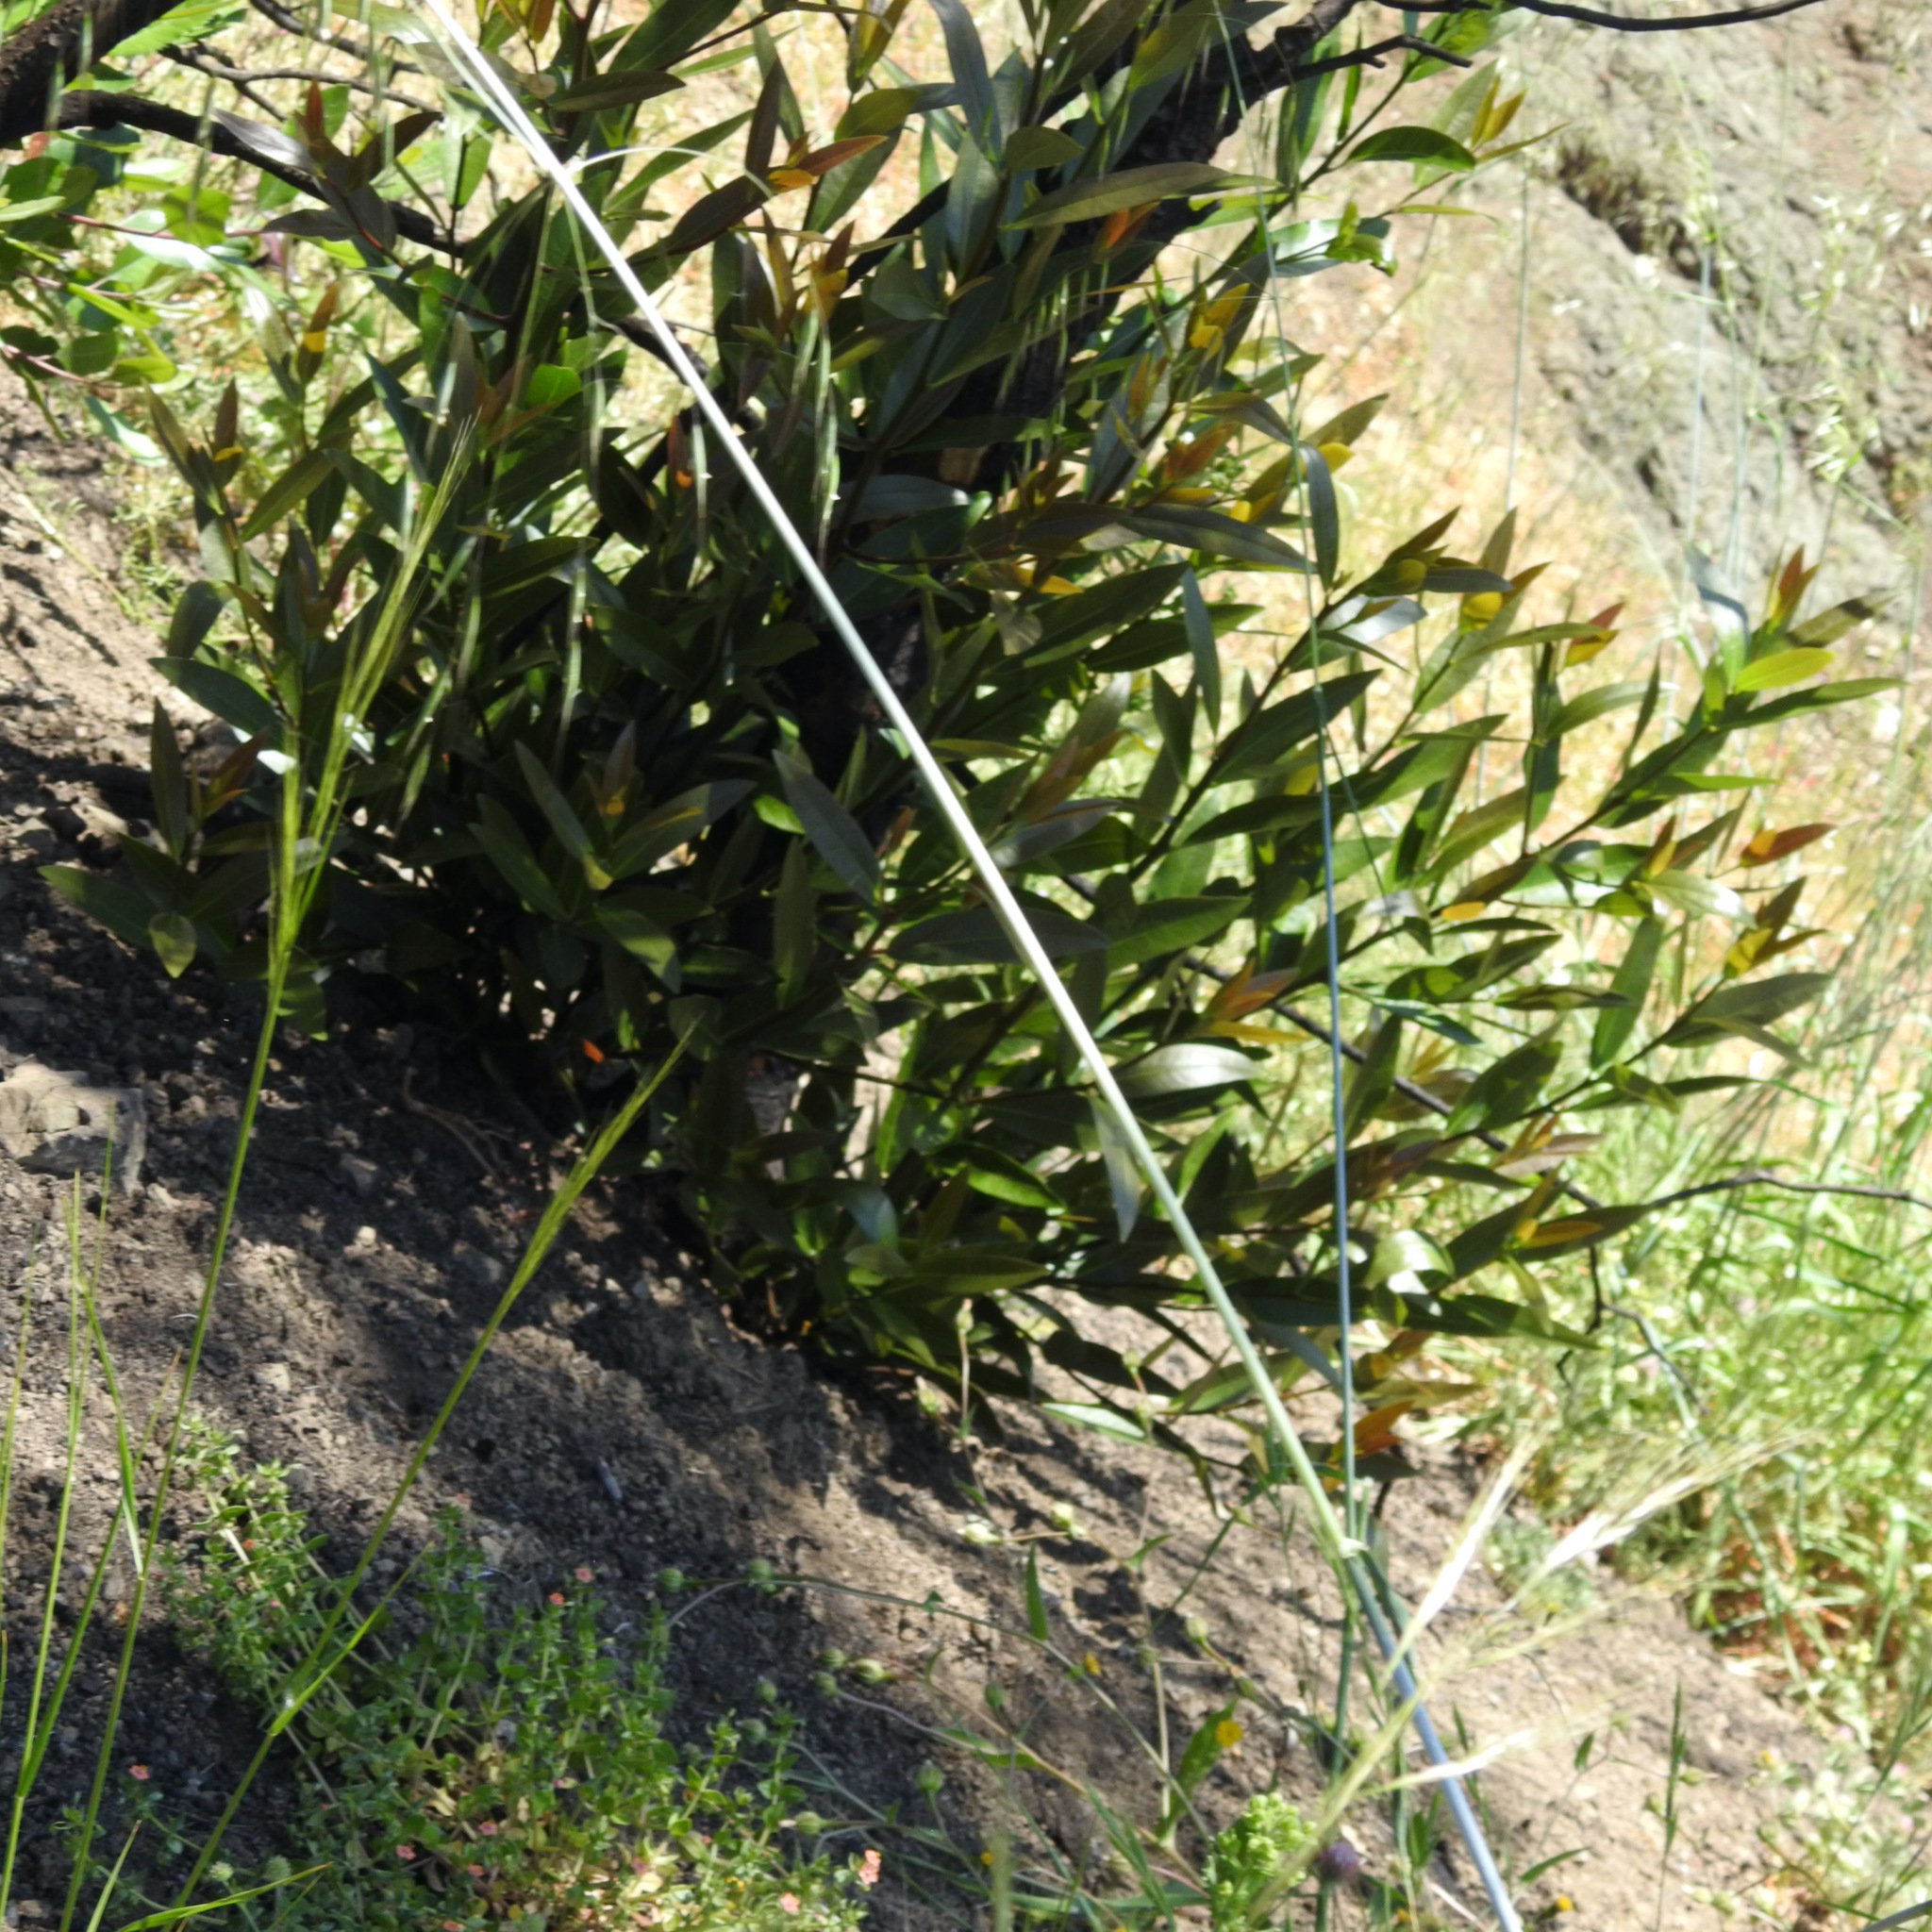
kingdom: Plantae
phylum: Tracheophyta
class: Magnoliopsida
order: Laurales
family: Lauraceae
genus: Umbellularia
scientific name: Umbellularia californica
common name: California bay
